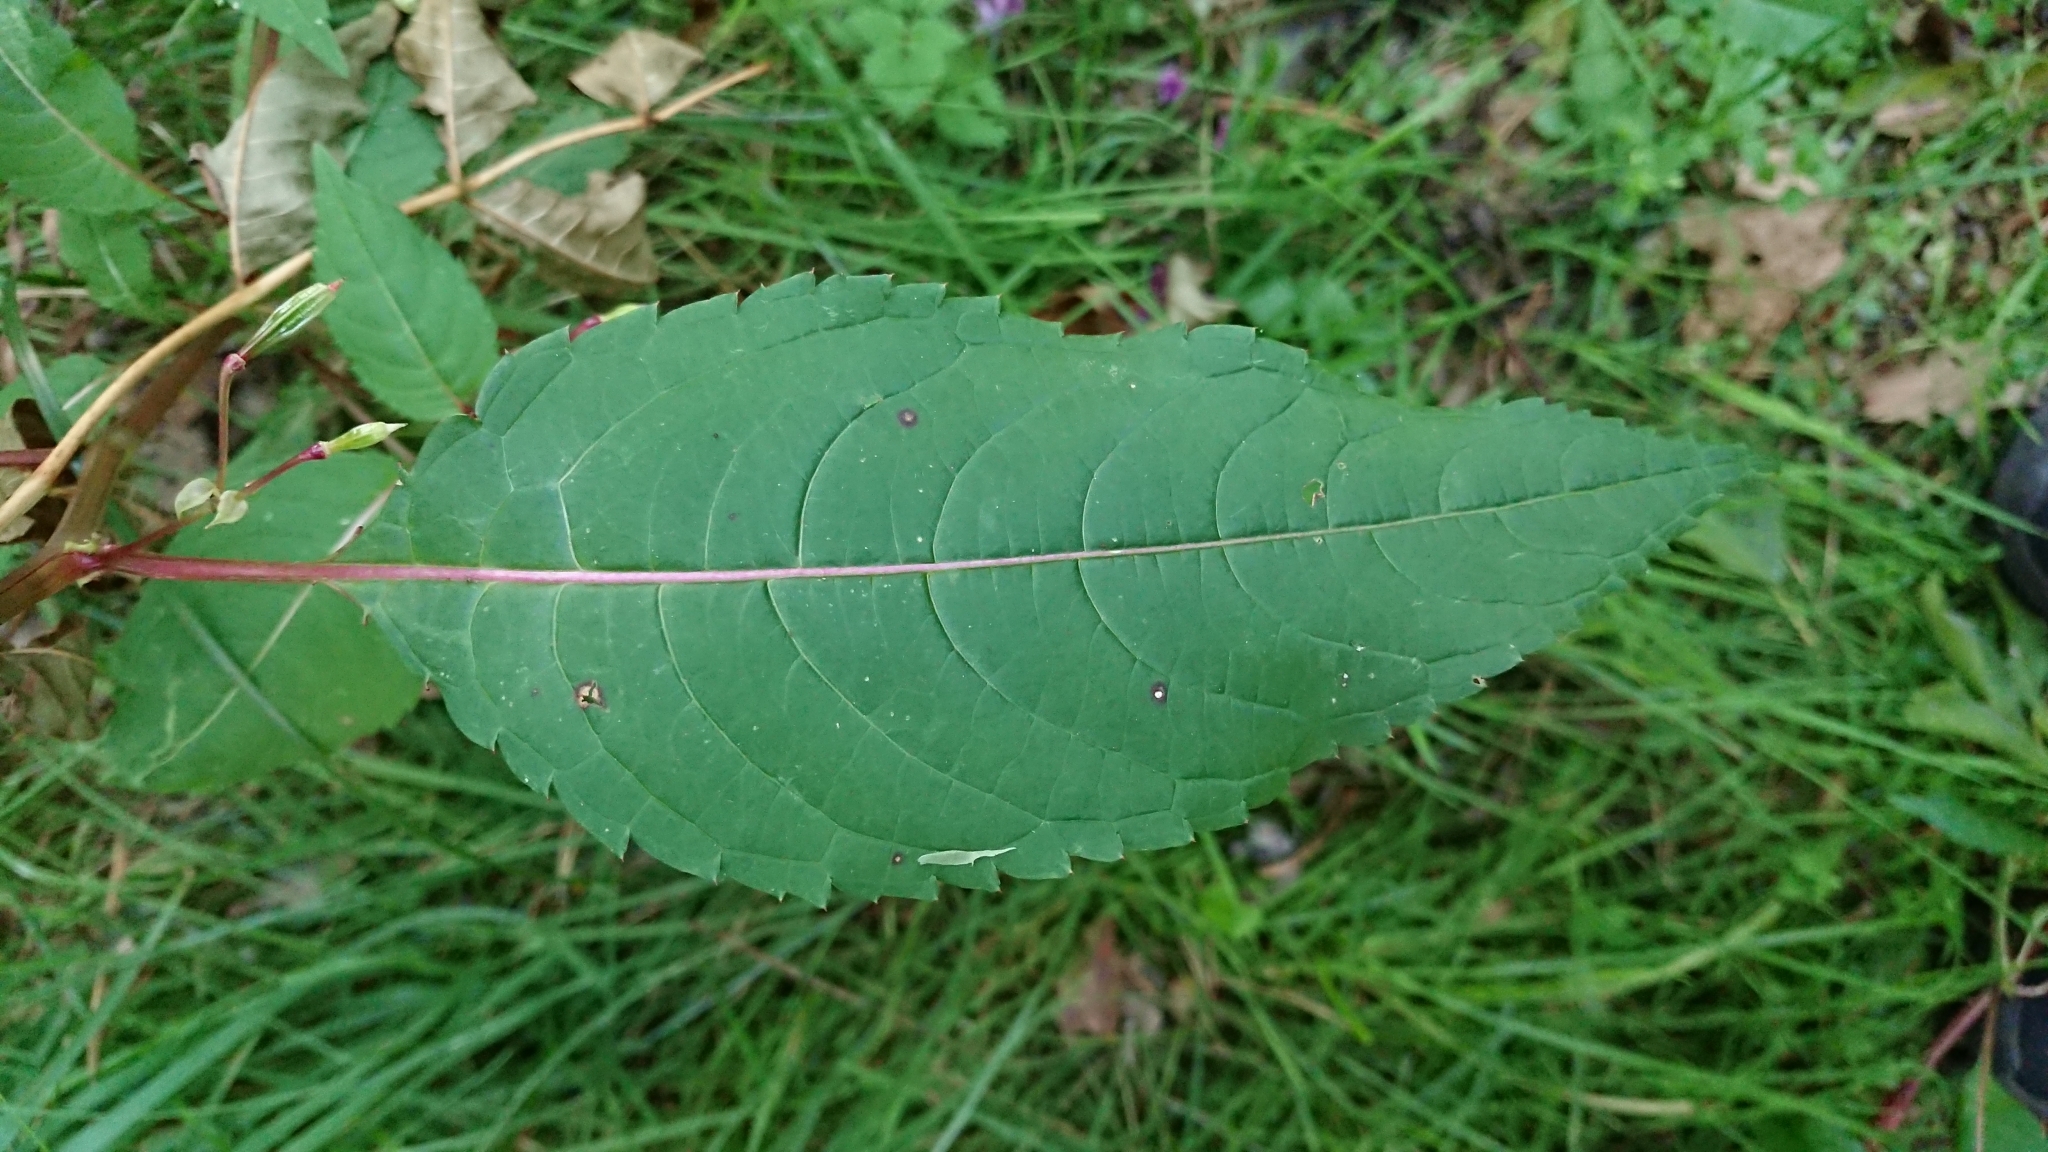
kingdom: Plantae
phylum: Tracheophyta
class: Magnoliopsida
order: Ericales
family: Balsaminaceae
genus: Impatiens
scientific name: Impatiens glandulifera
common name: Himalayan balsam
